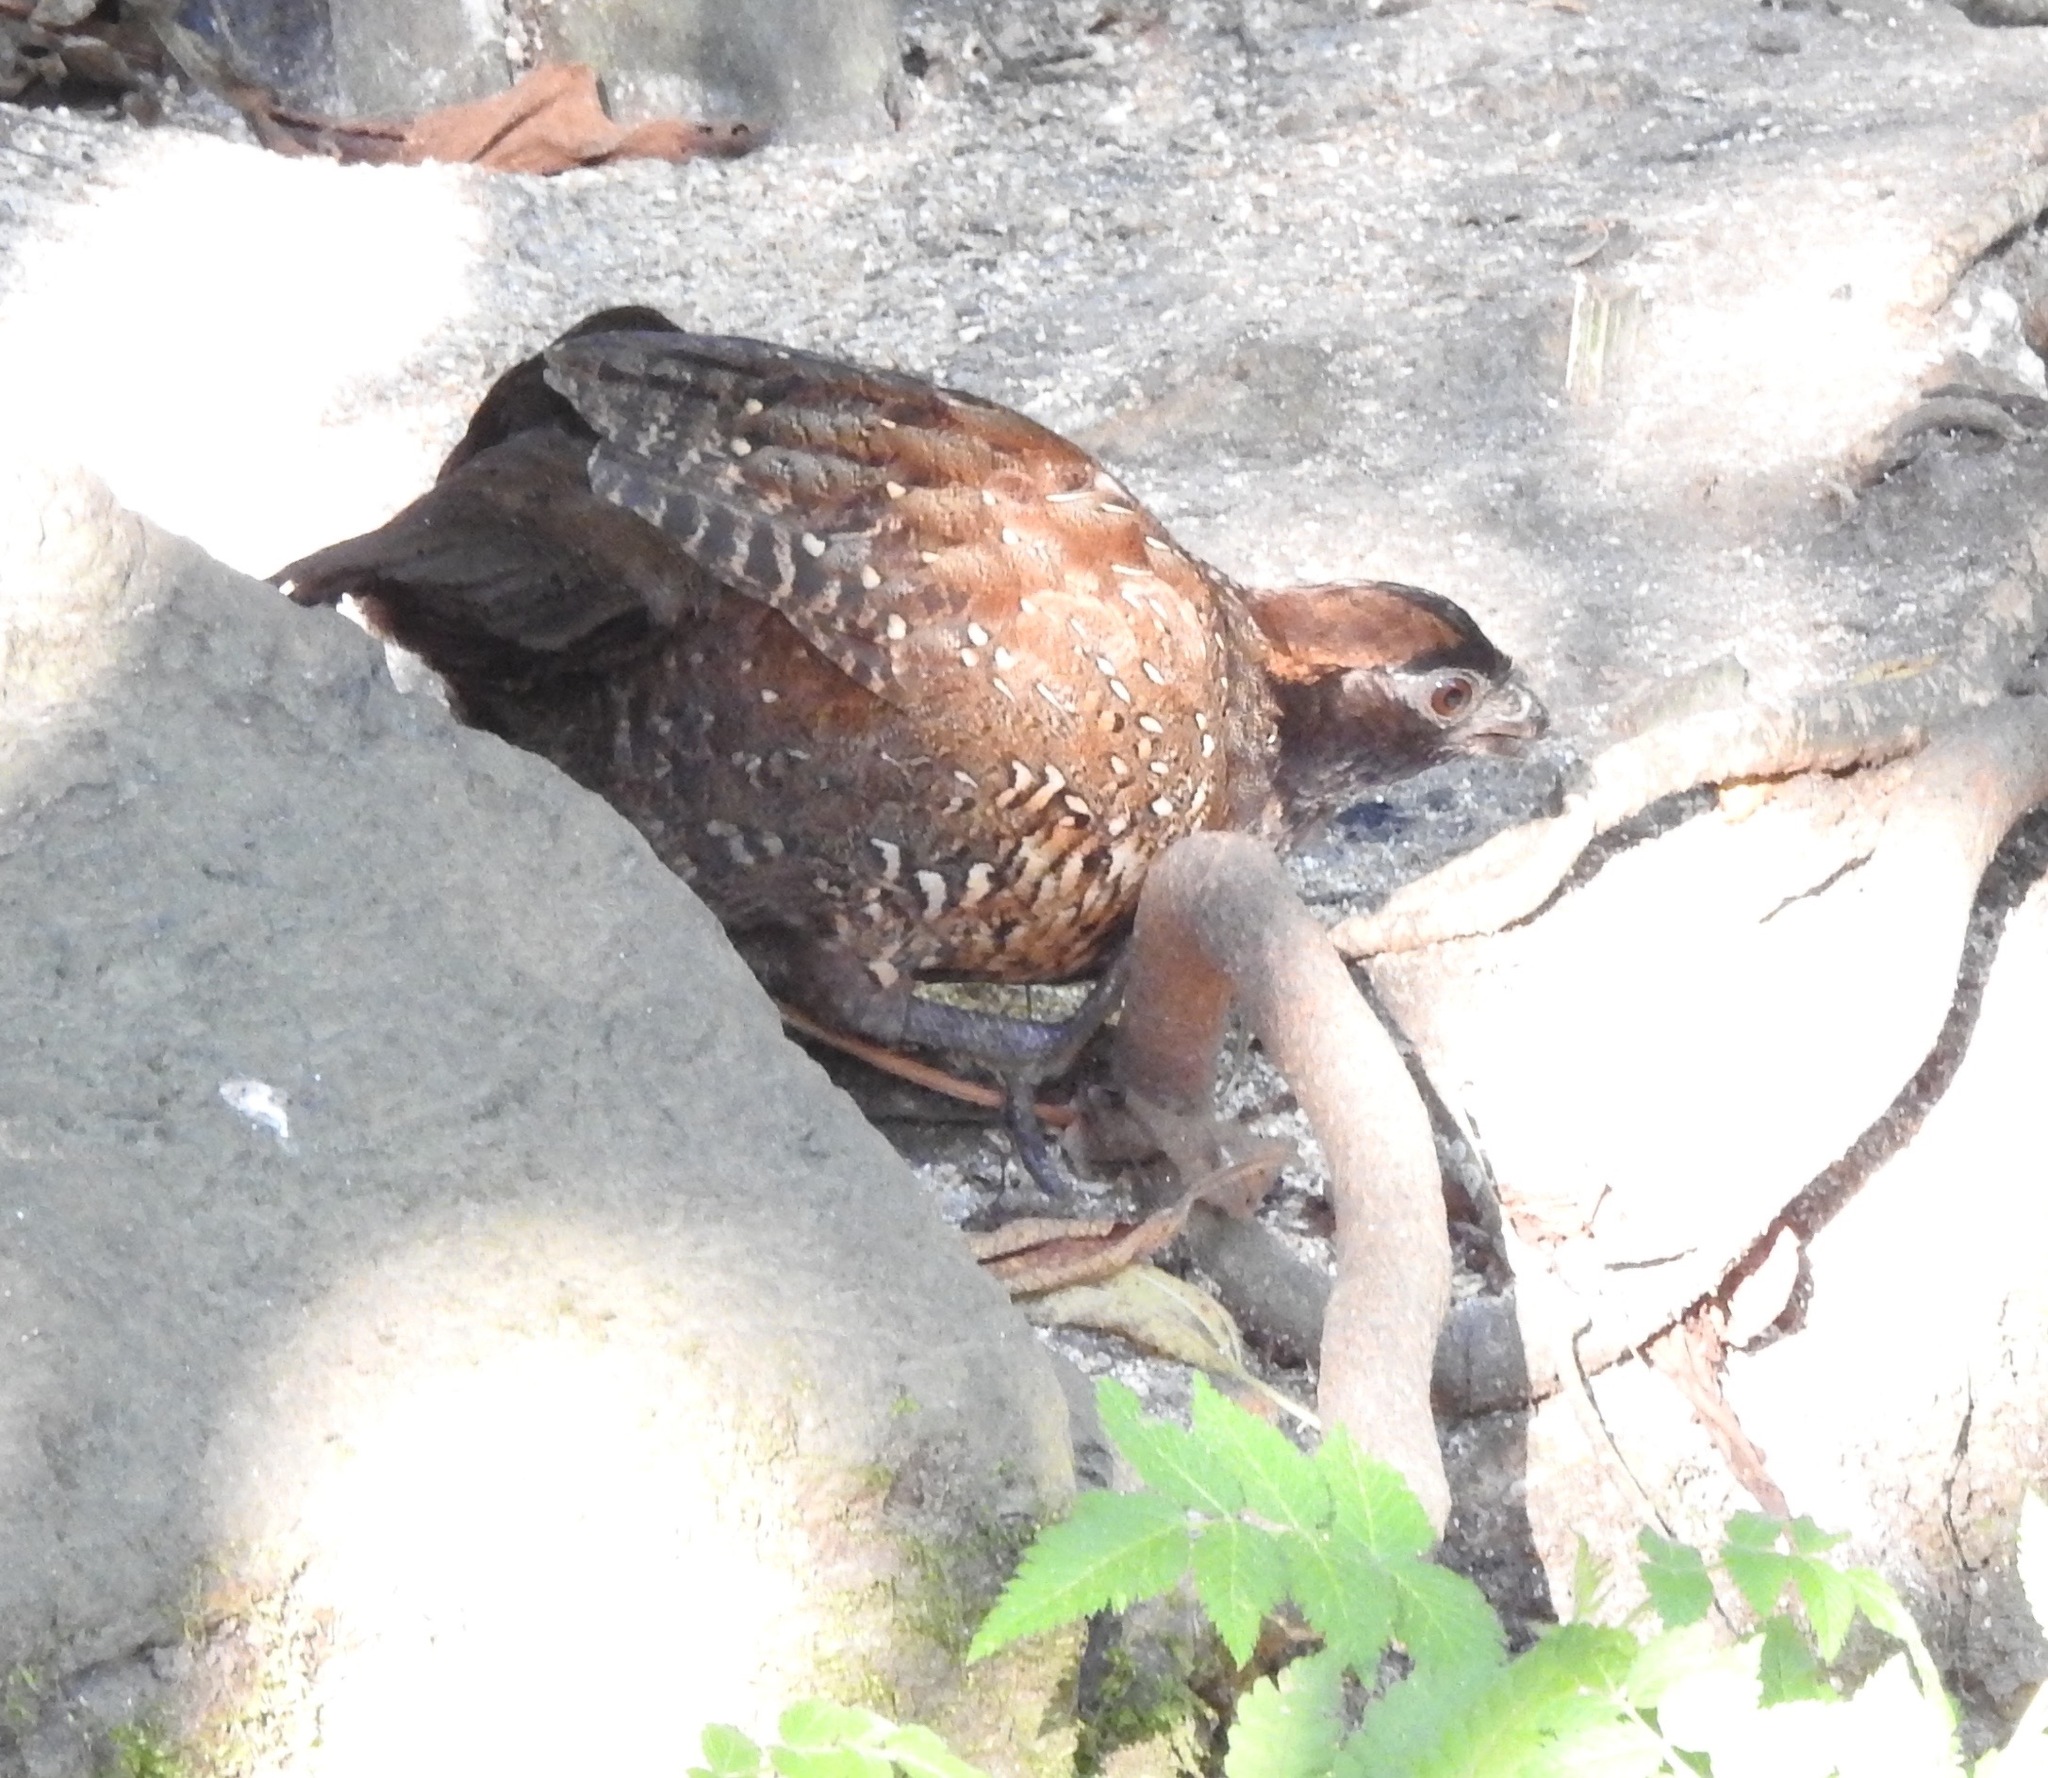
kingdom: Animalia
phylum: Chordata
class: Aves
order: Galliformes
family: Odontophoridae
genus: Odontophorus
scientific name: Odontophorus atrifrons
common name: Black-fronted wood-quail
